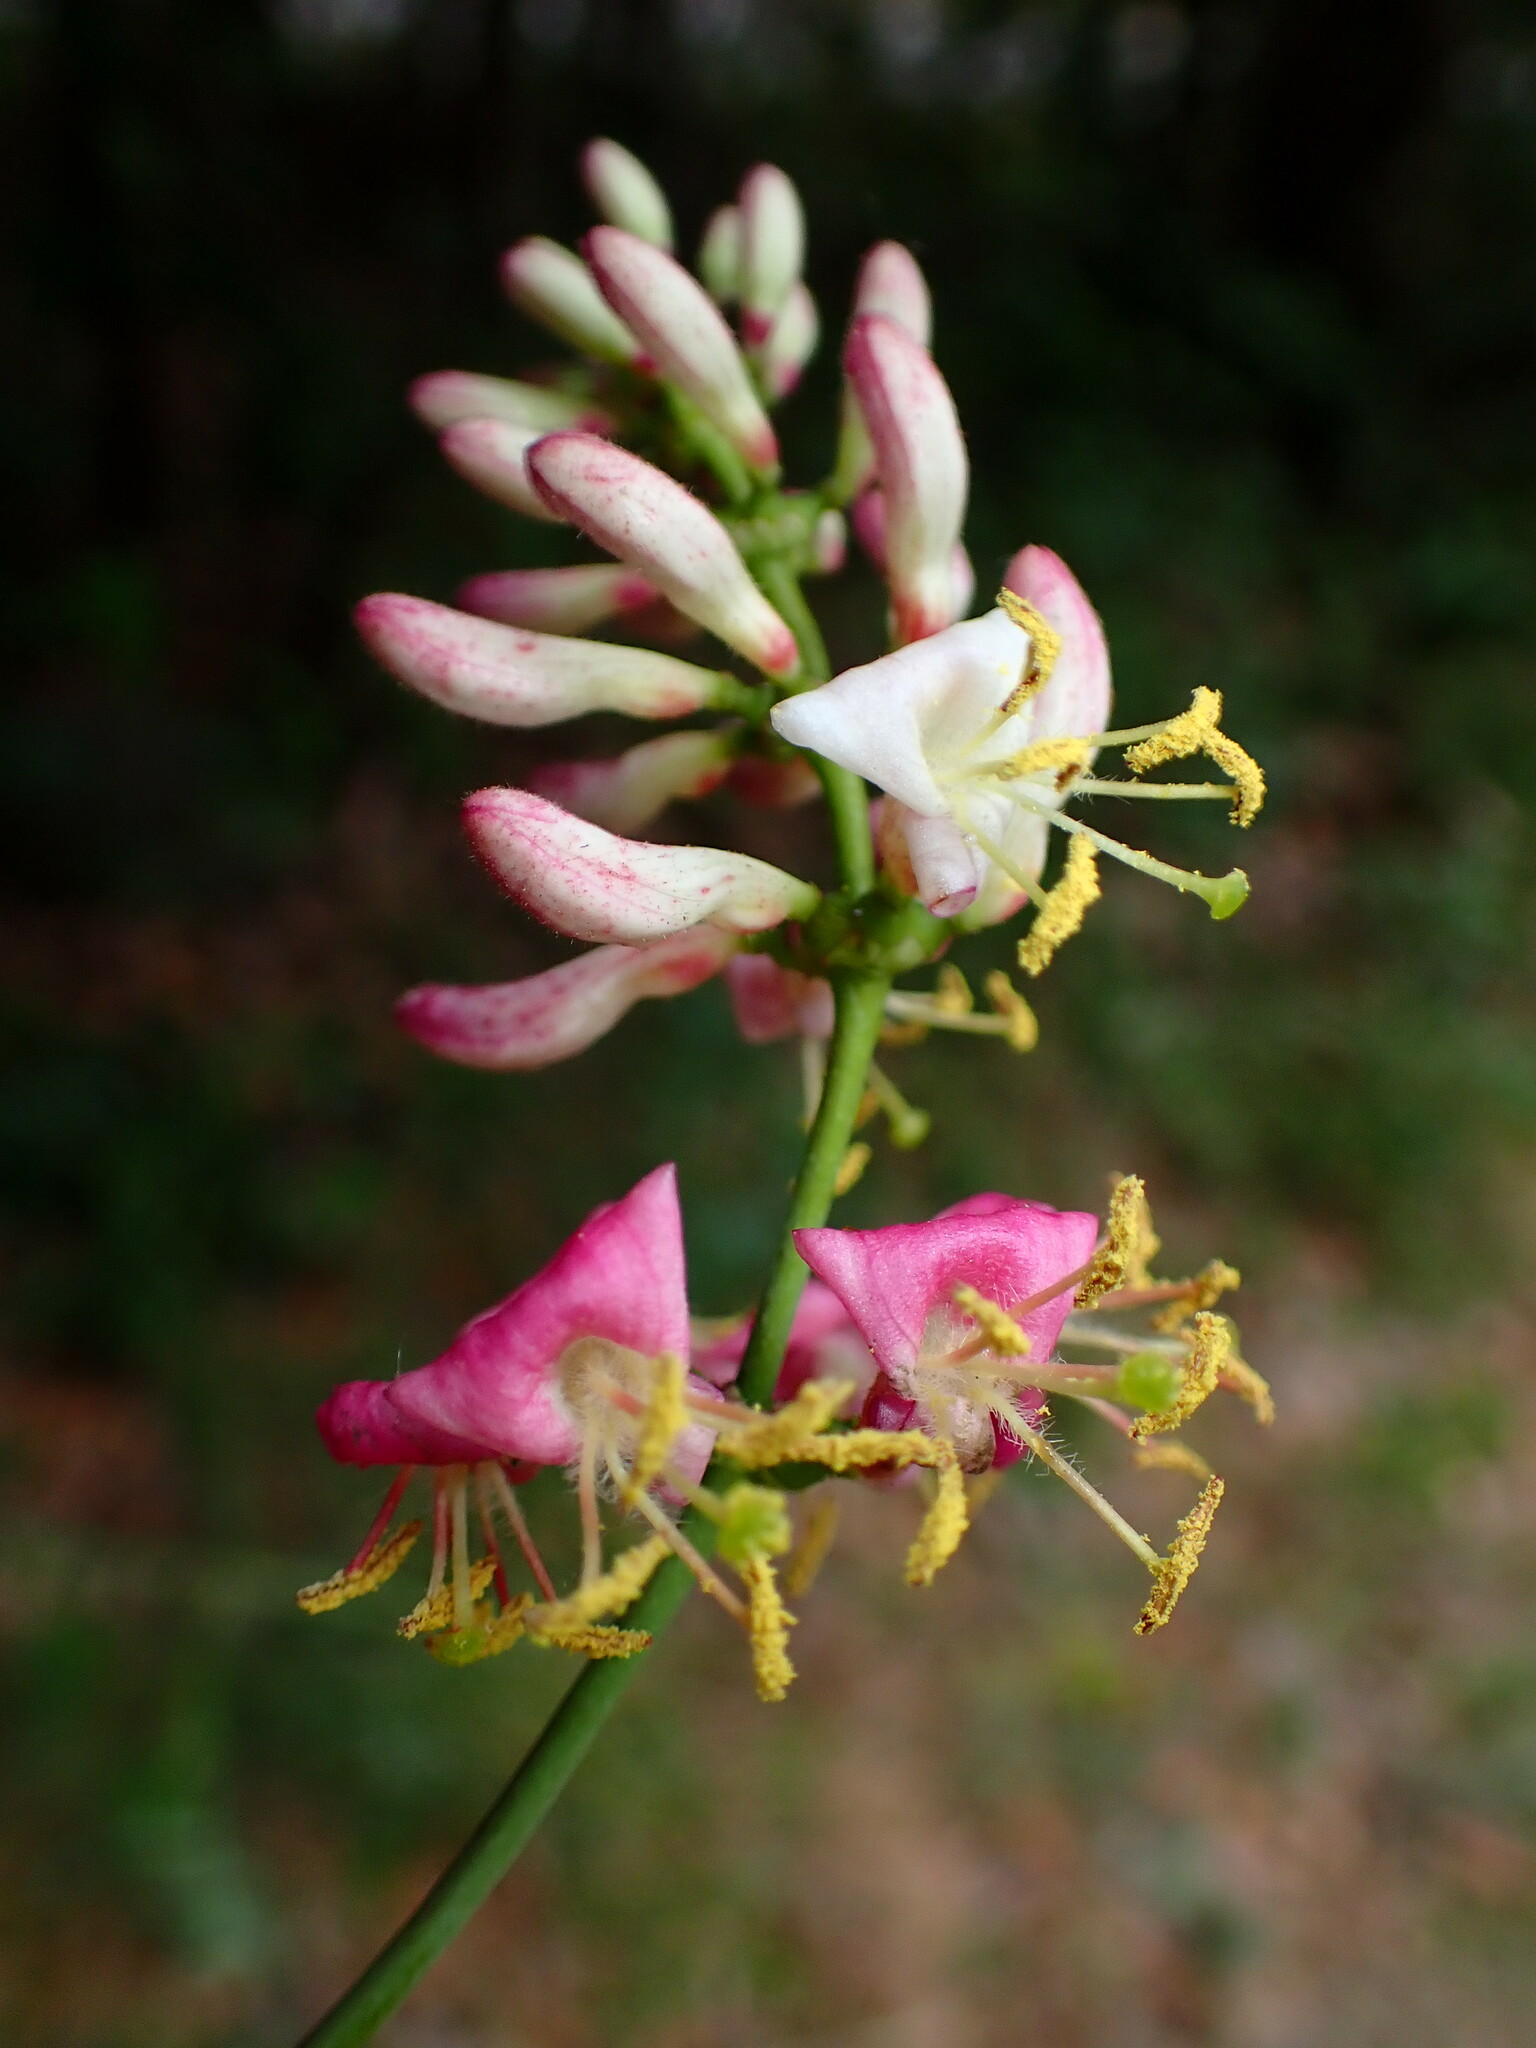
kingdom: Plantae
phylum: Tracheophyta
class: Magnoliopsida
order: Dipsacales
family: Caprifoliaceae
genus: Lonicera
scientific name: Lonicera hispidula
